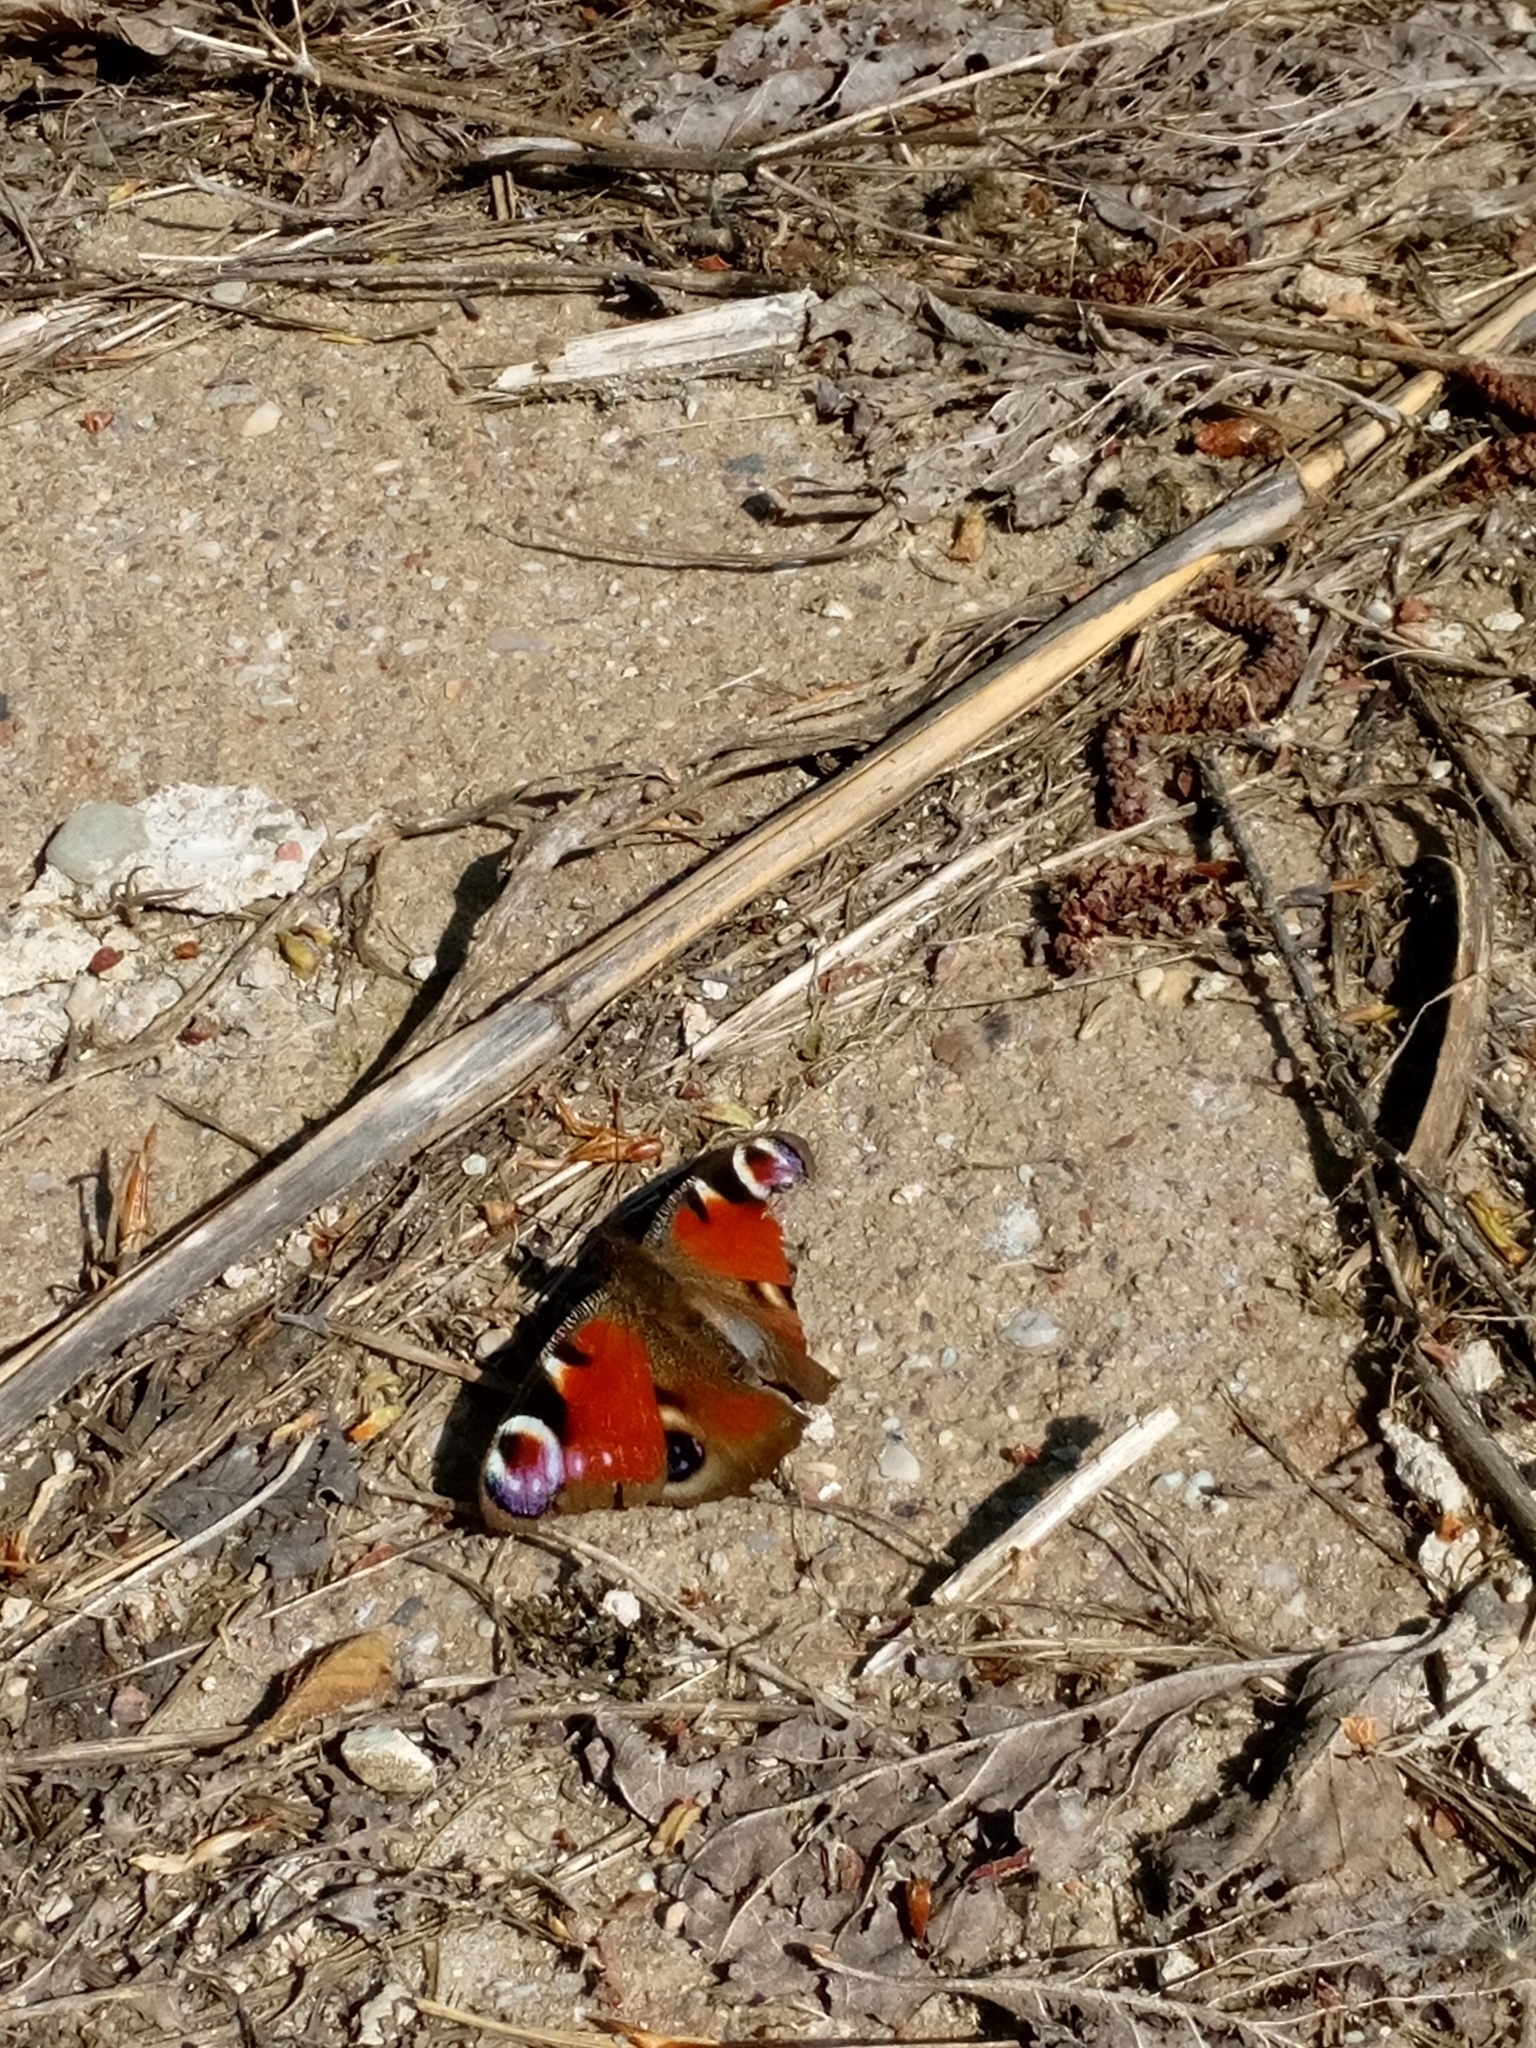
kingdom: Animalia
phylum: Arthropoda
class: Insecta
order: Lepidoptera
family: Nymphalidae
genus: Aglais
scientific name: Aglais io
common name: Peacock
